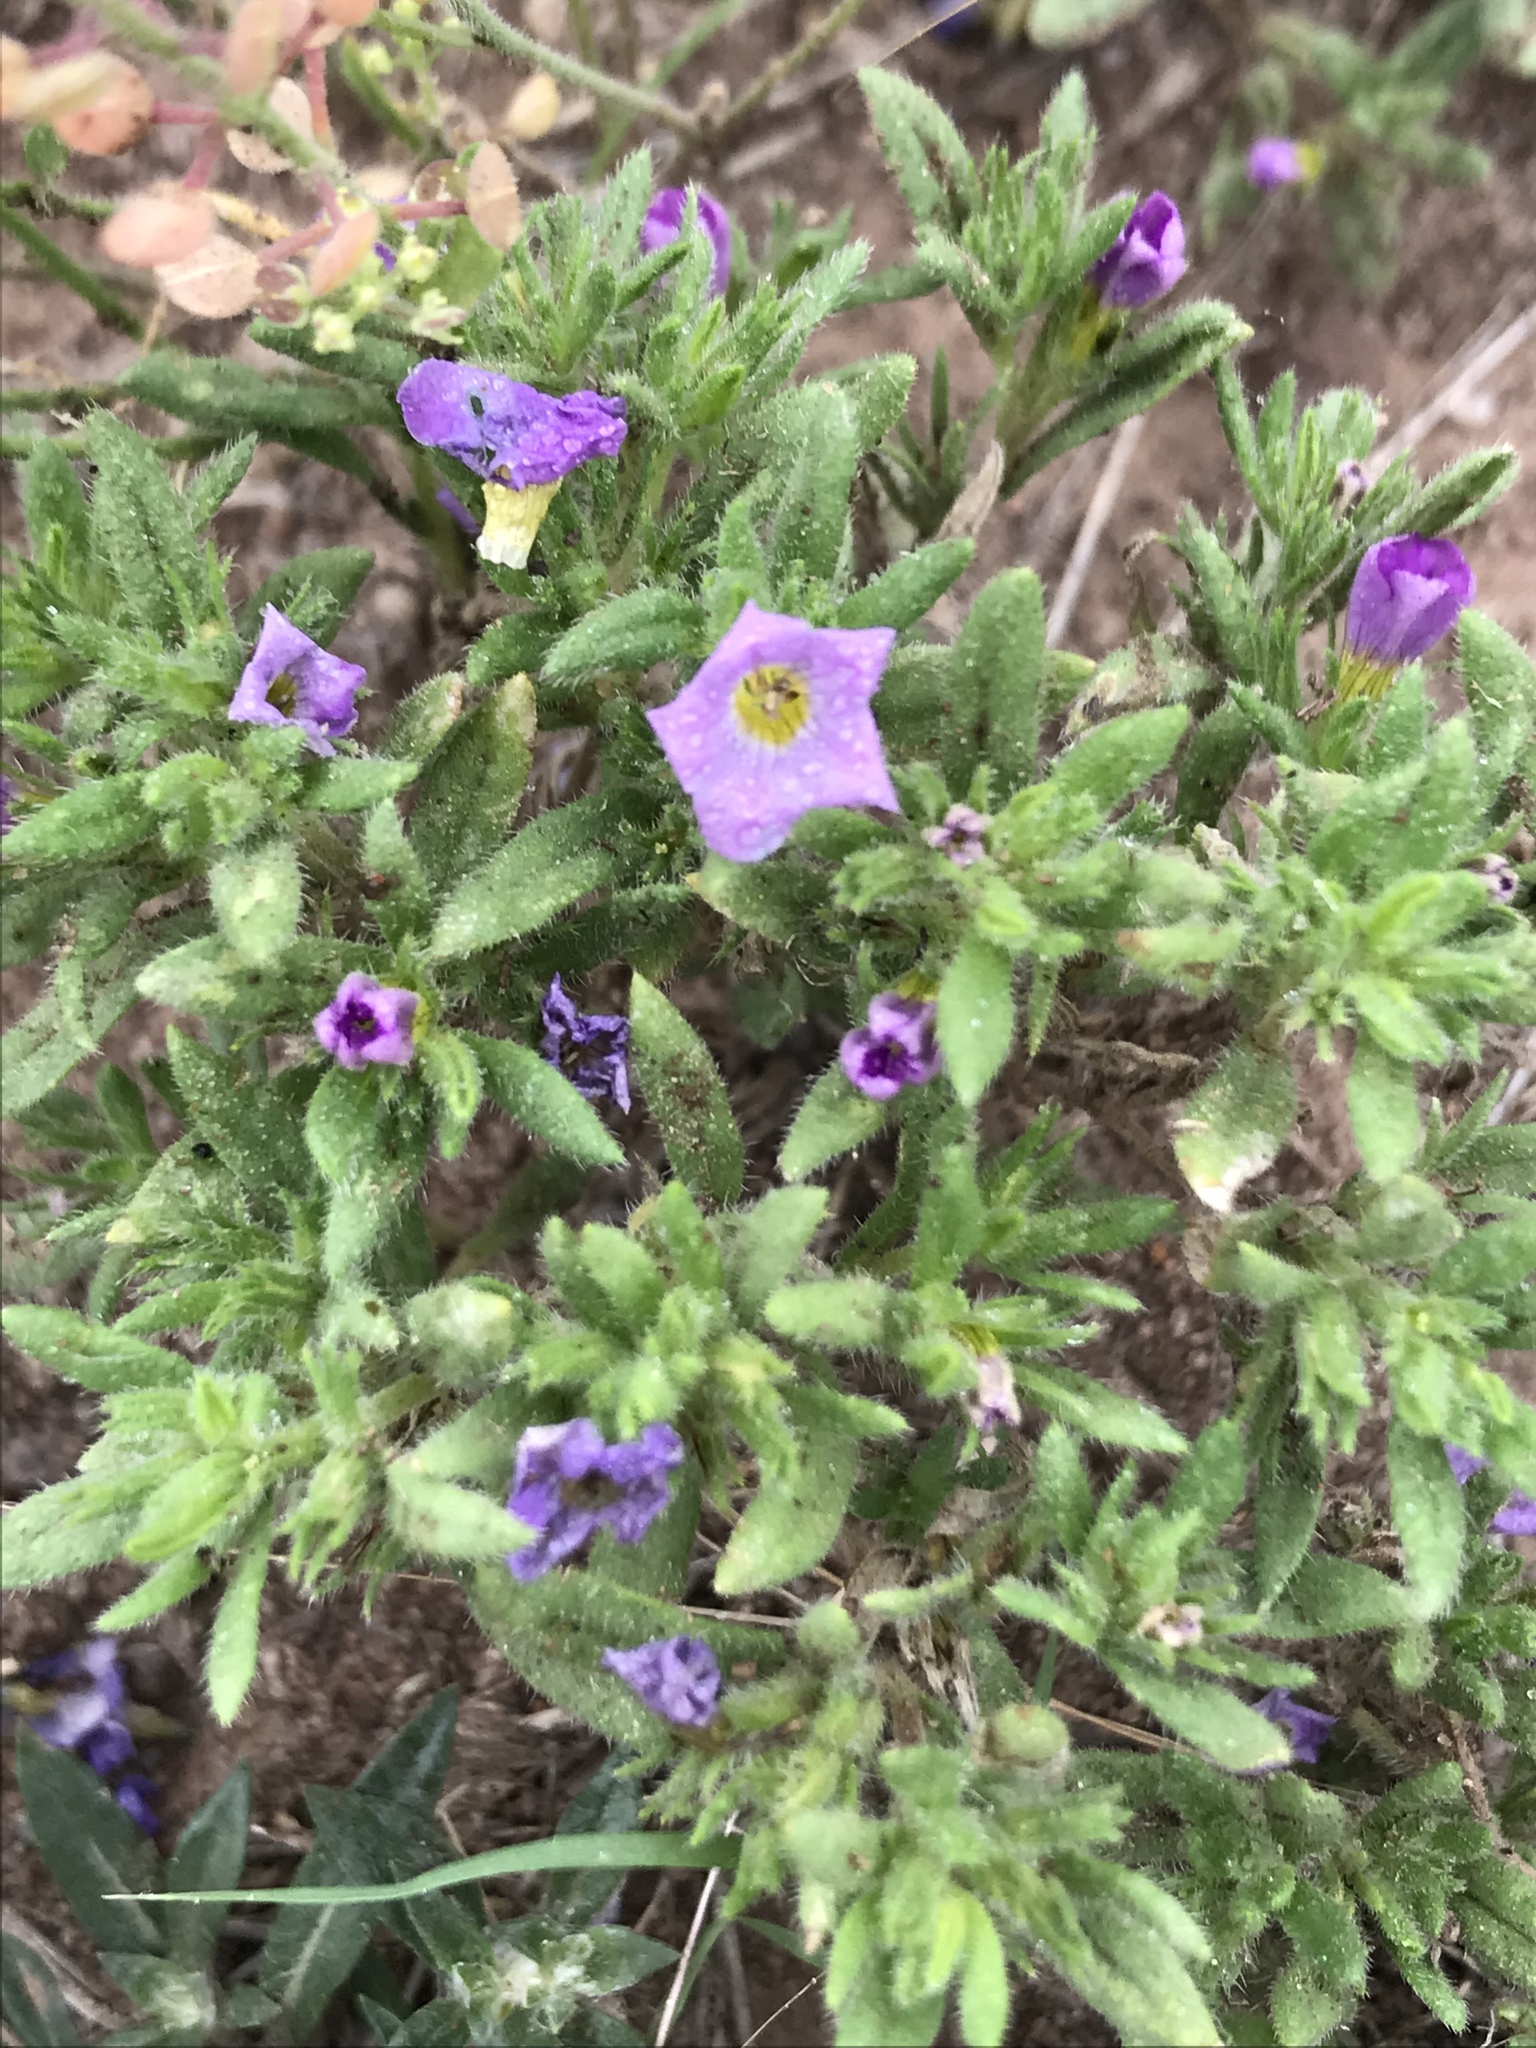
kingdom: Plantae
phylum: Tracheophyta
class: Magnoliopsida
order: Boraginales
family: Namaceae
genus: Nama
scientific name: Nama hispida
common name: Bristly nama
